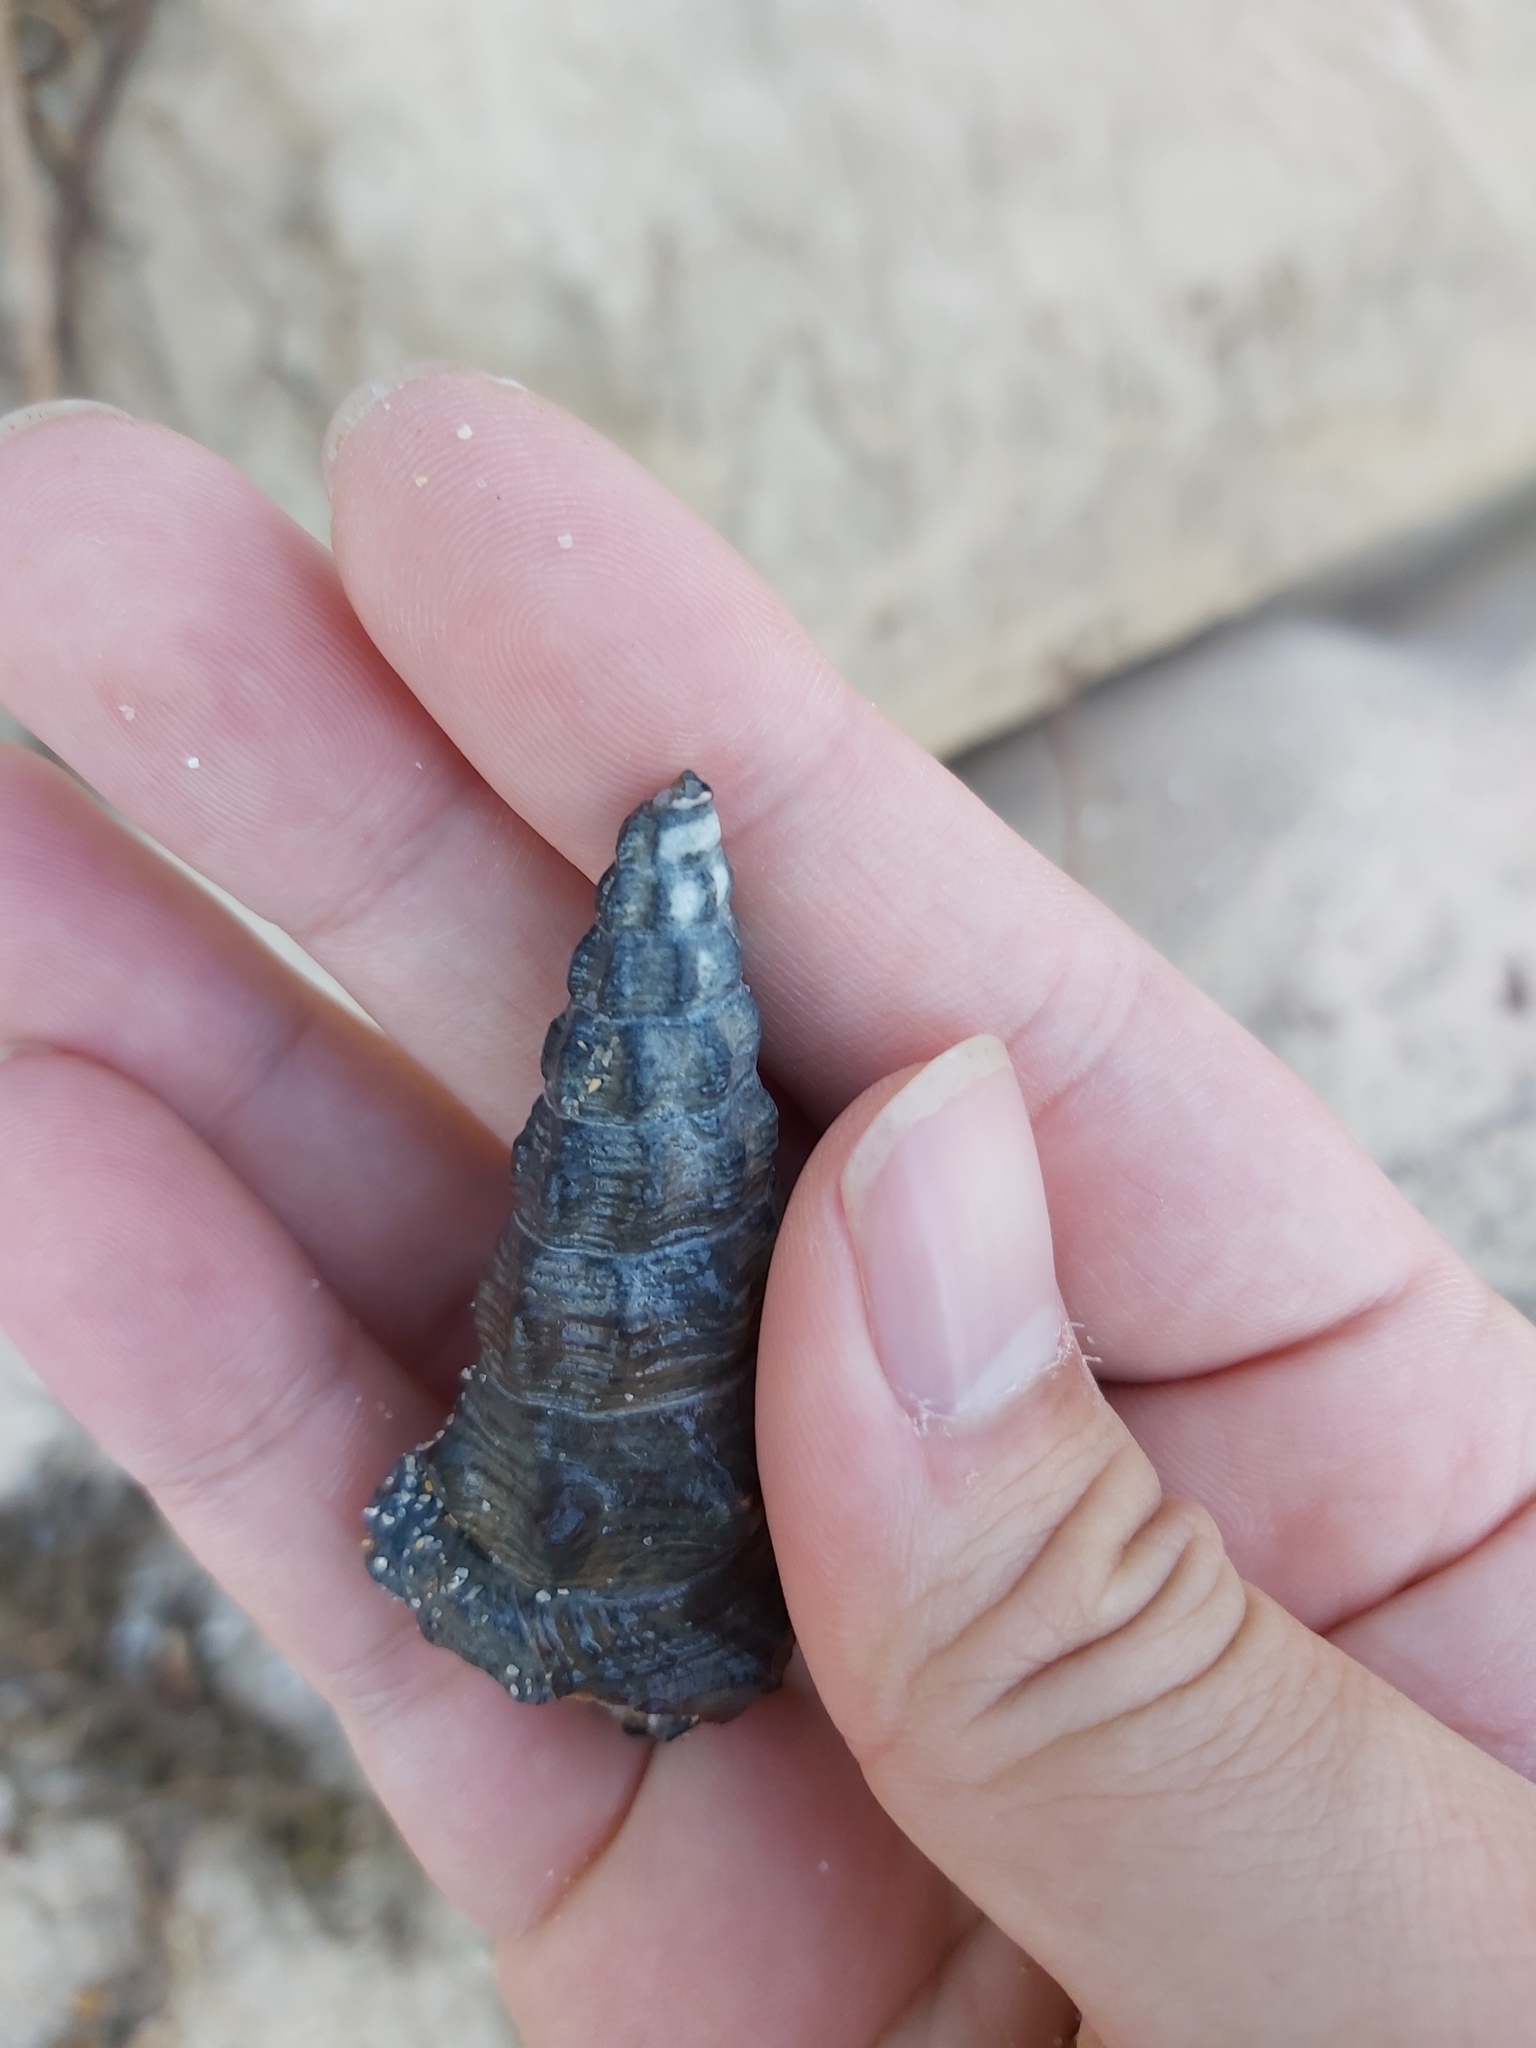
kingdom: Animalia
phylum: Mollusca
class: Gastropoda
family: Batillariidae
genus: Pyrazus
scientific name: Pyrazus ebeninus
